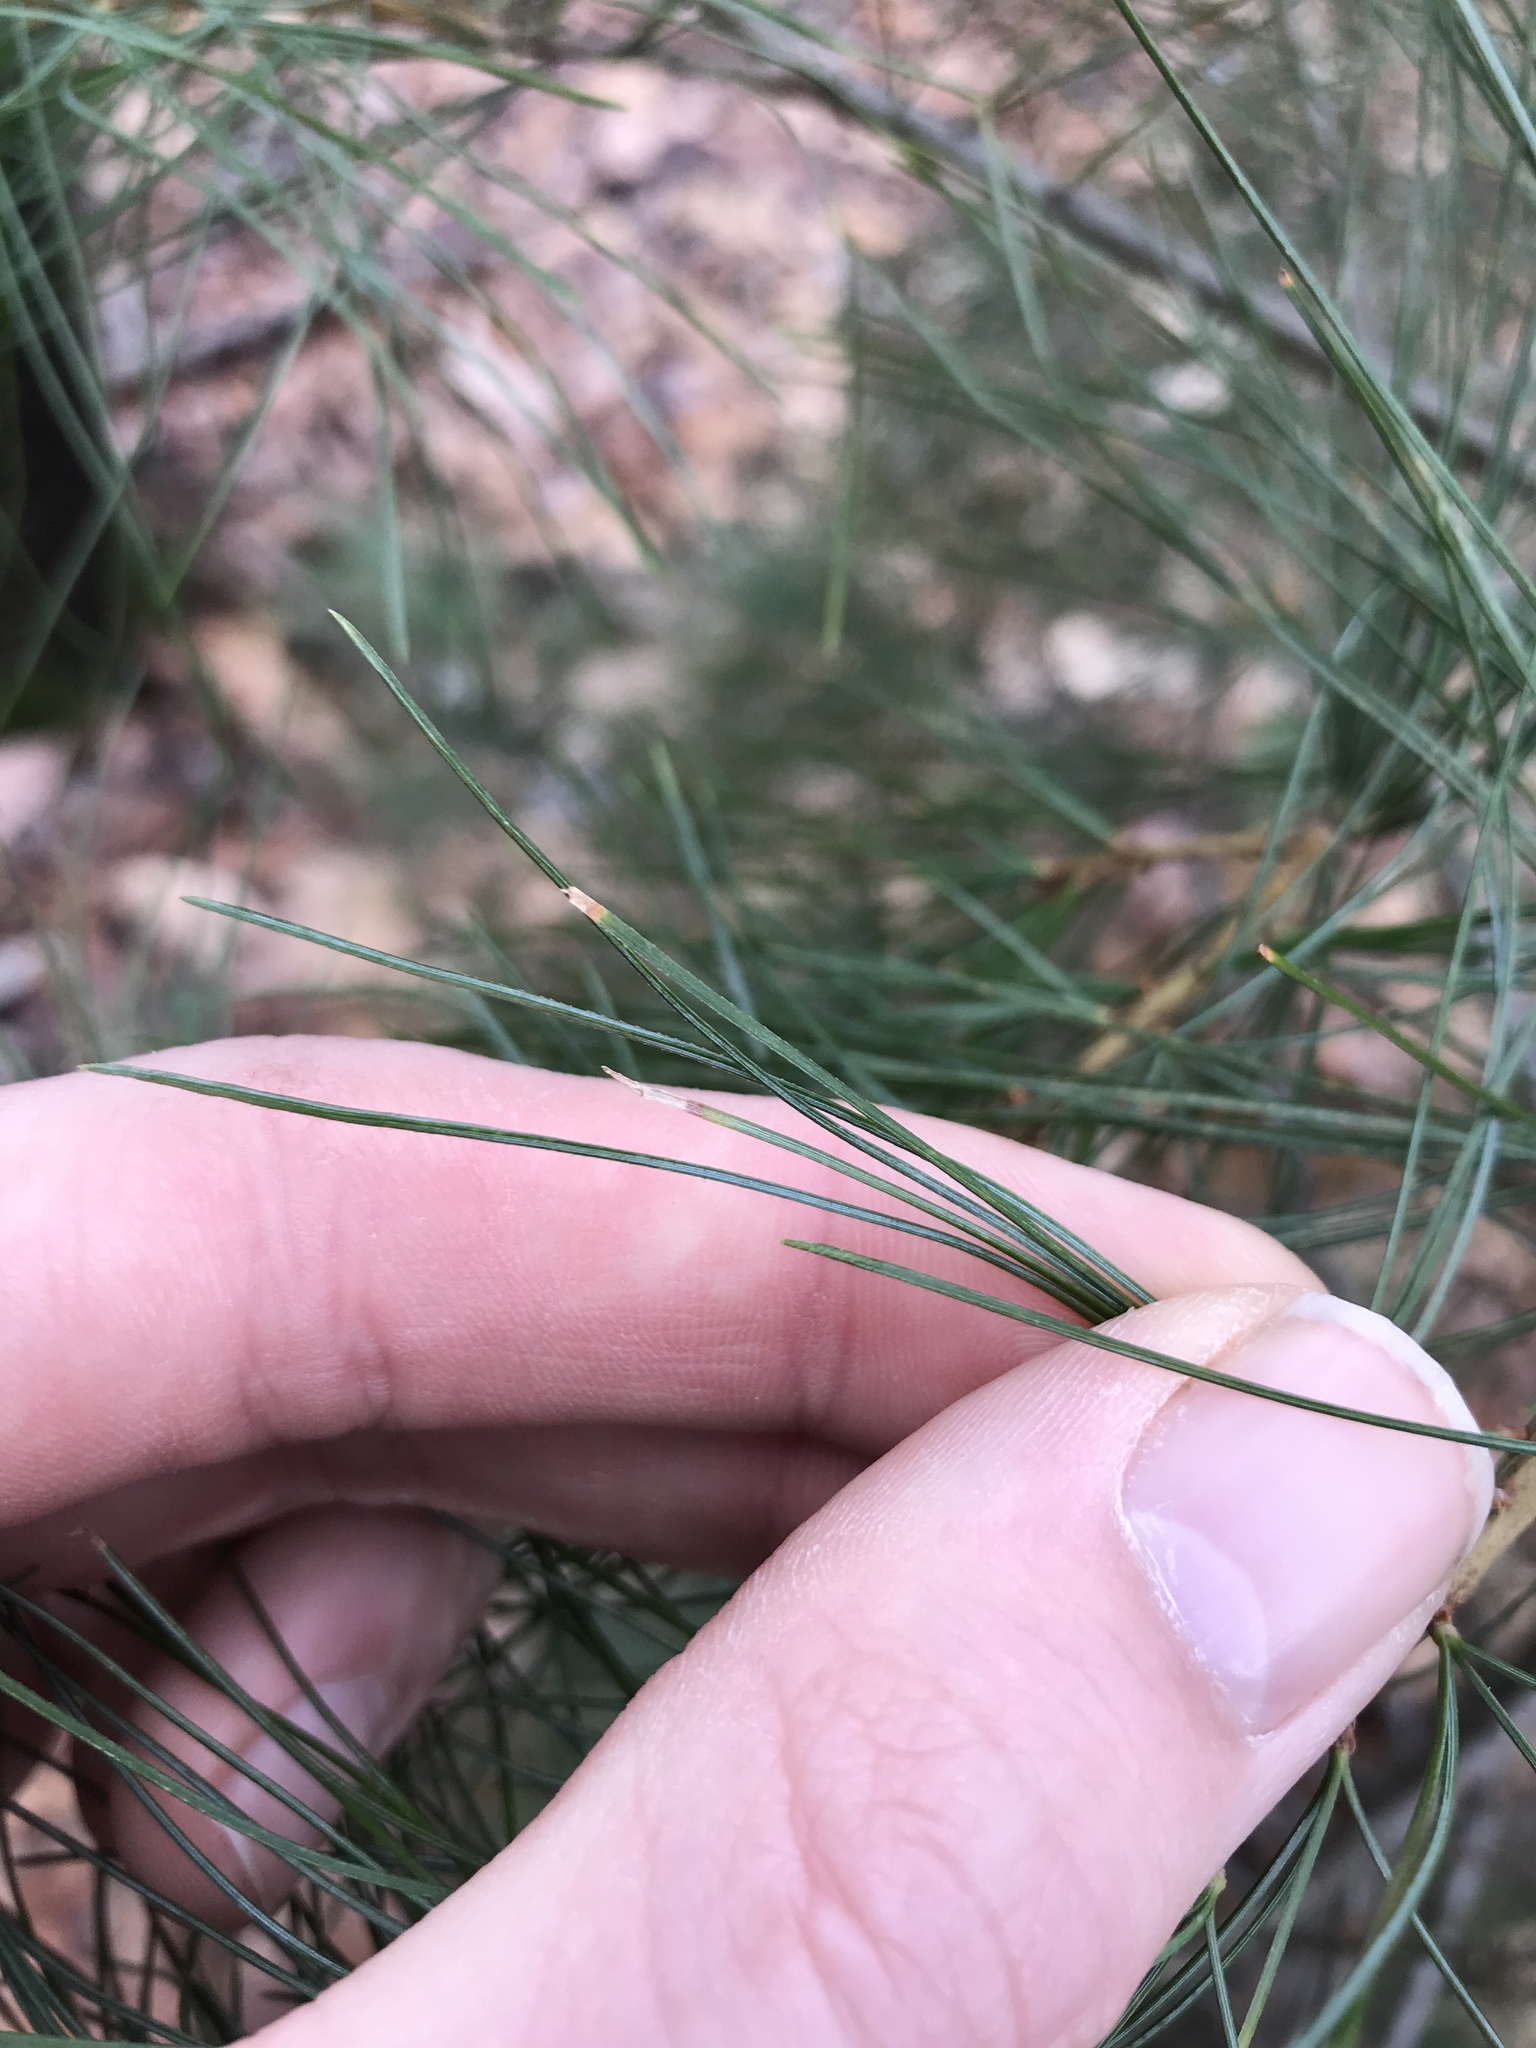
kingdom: Plantae
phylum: Tracheophyta
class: Pinopsida
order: Pinales
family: Pinaceae
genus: Pinus
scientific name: Pinus strobus
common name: Weymouth pine
